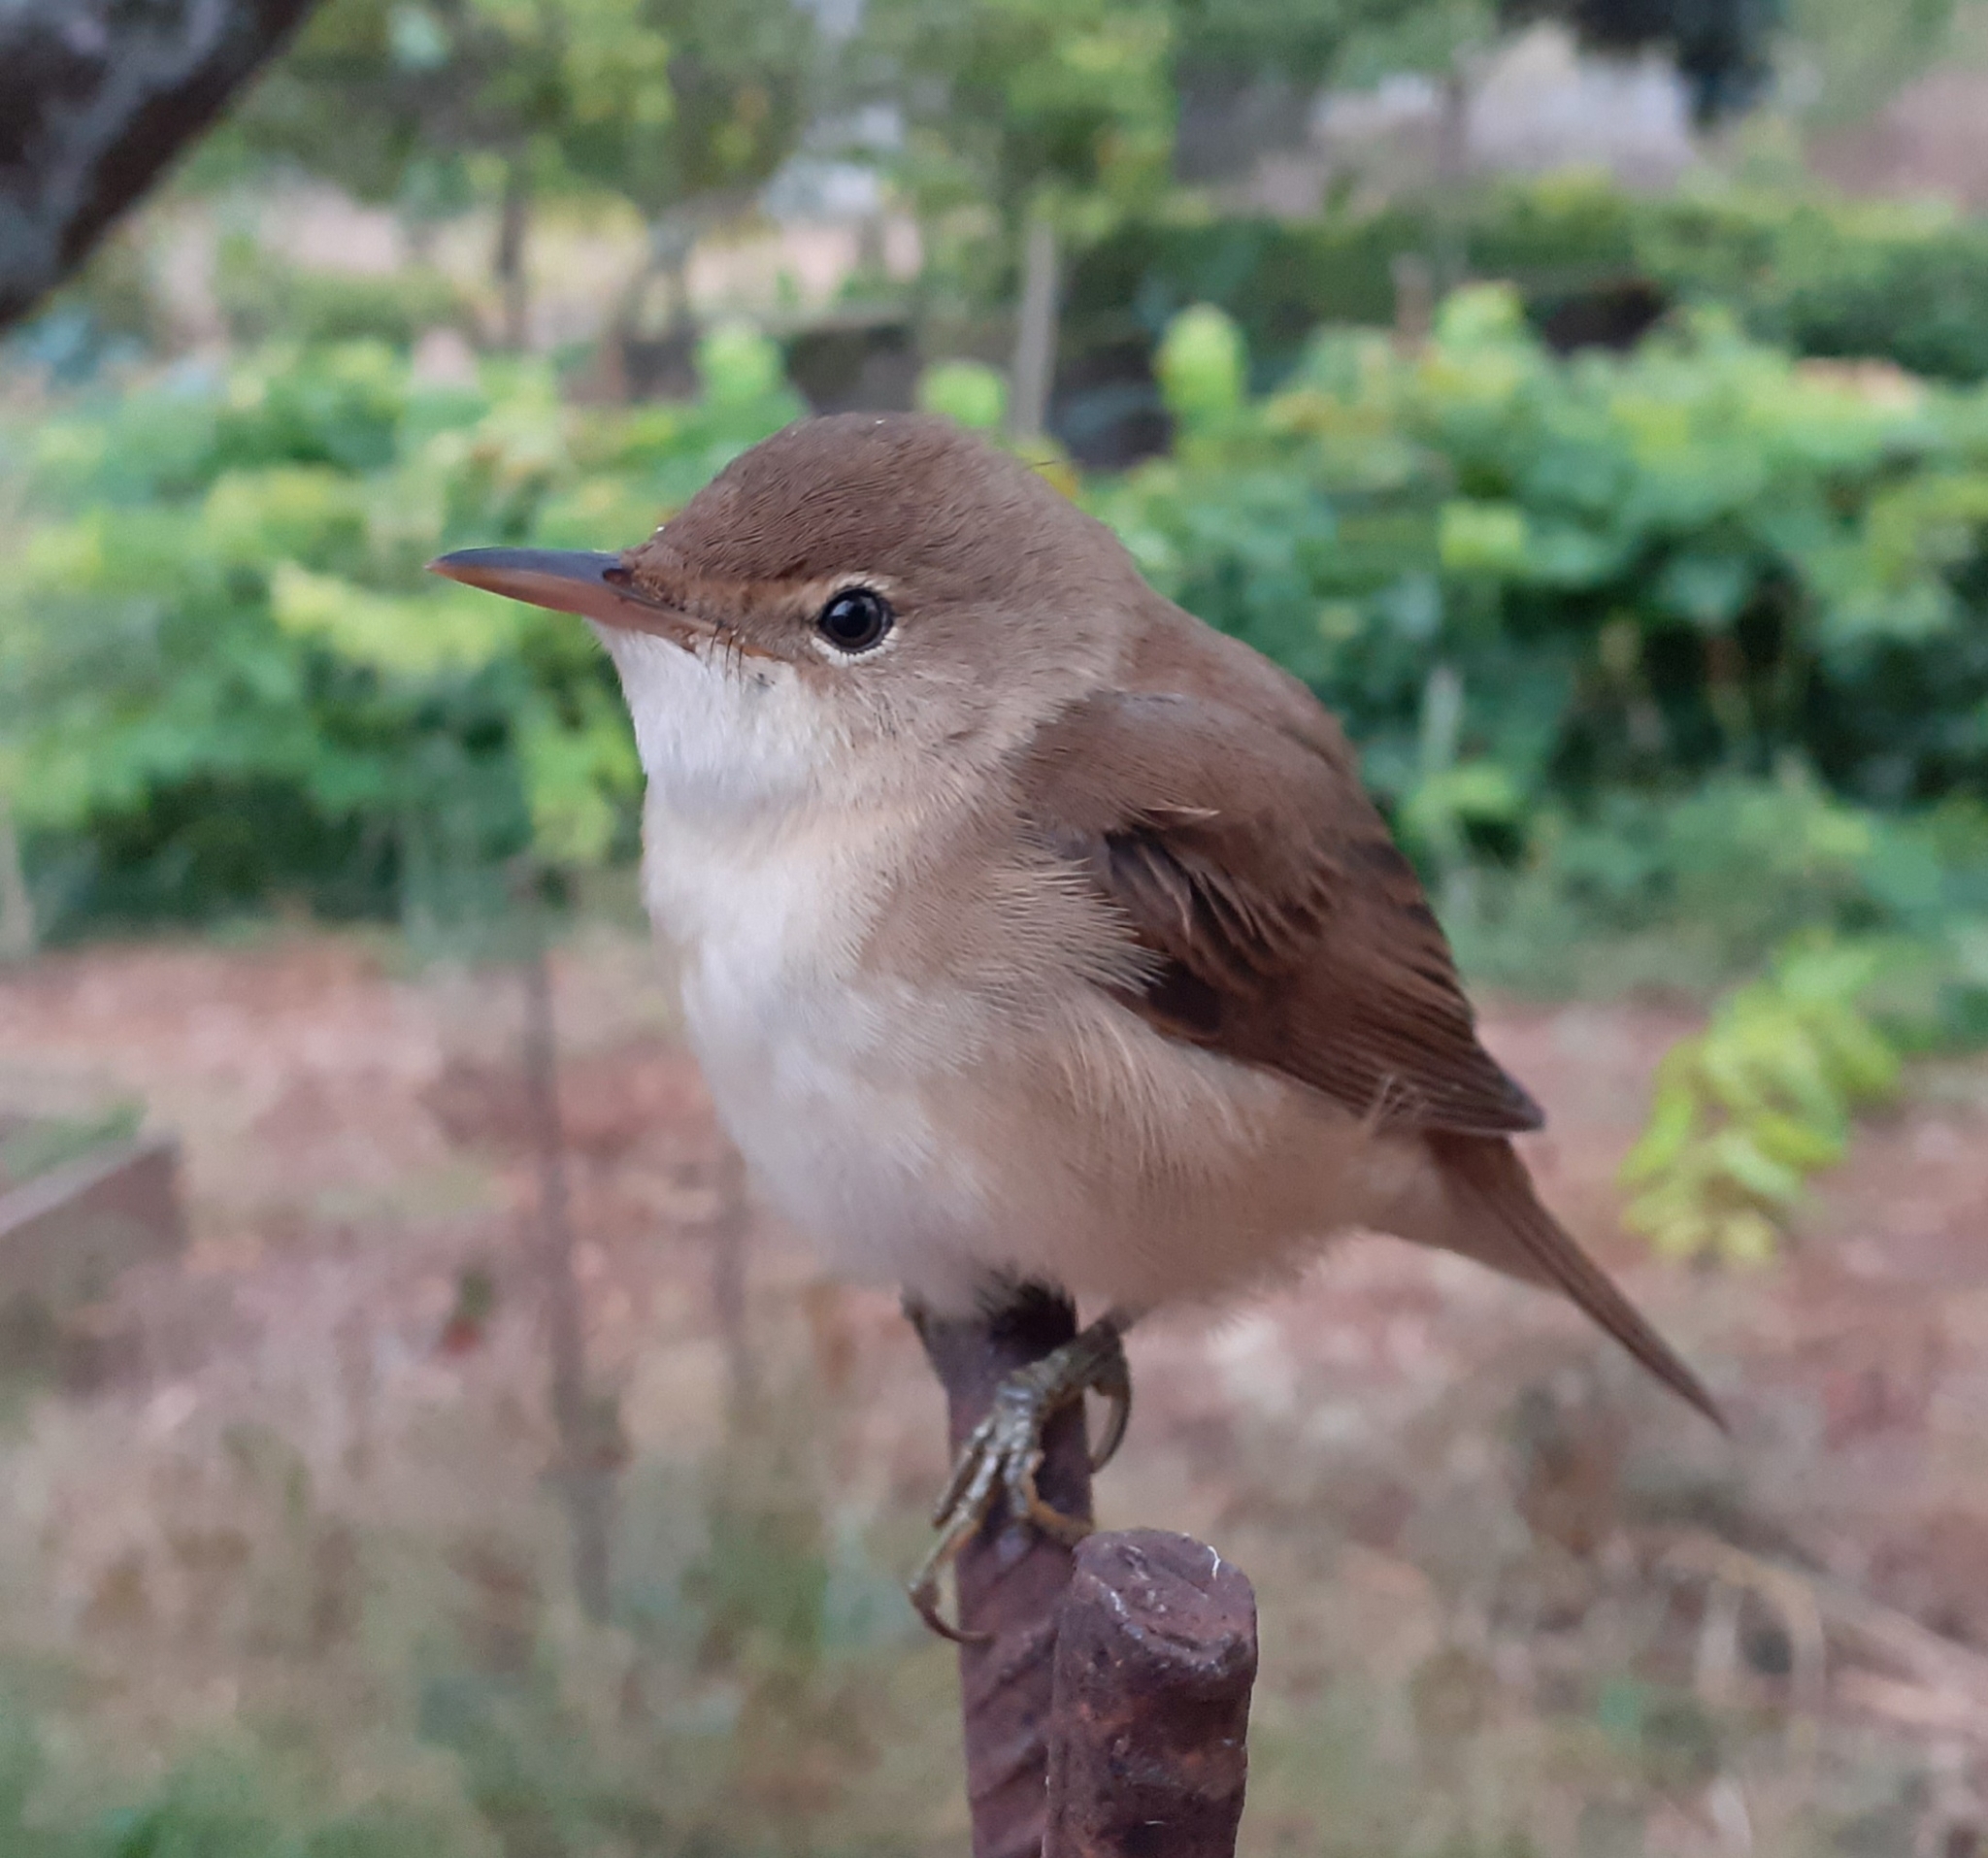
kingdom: Animalia
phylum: Chordata
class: Aves
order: Passeriformes
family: Acrocephalidae
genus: Acrocephalus
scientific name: Acrocephalus scirpaceus
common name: Eurasian reed warbler
